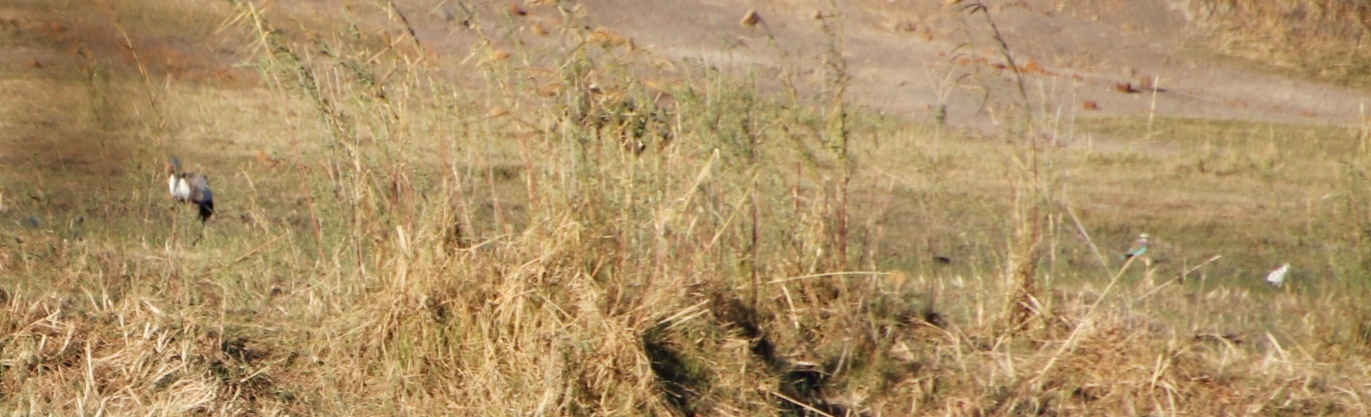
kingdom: Animalia
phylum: Chordata
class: Aves
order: Gruiformes
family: Gruidae
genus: Bugeranus
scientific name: Bugeranus carunculatus
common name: Wattled crane
